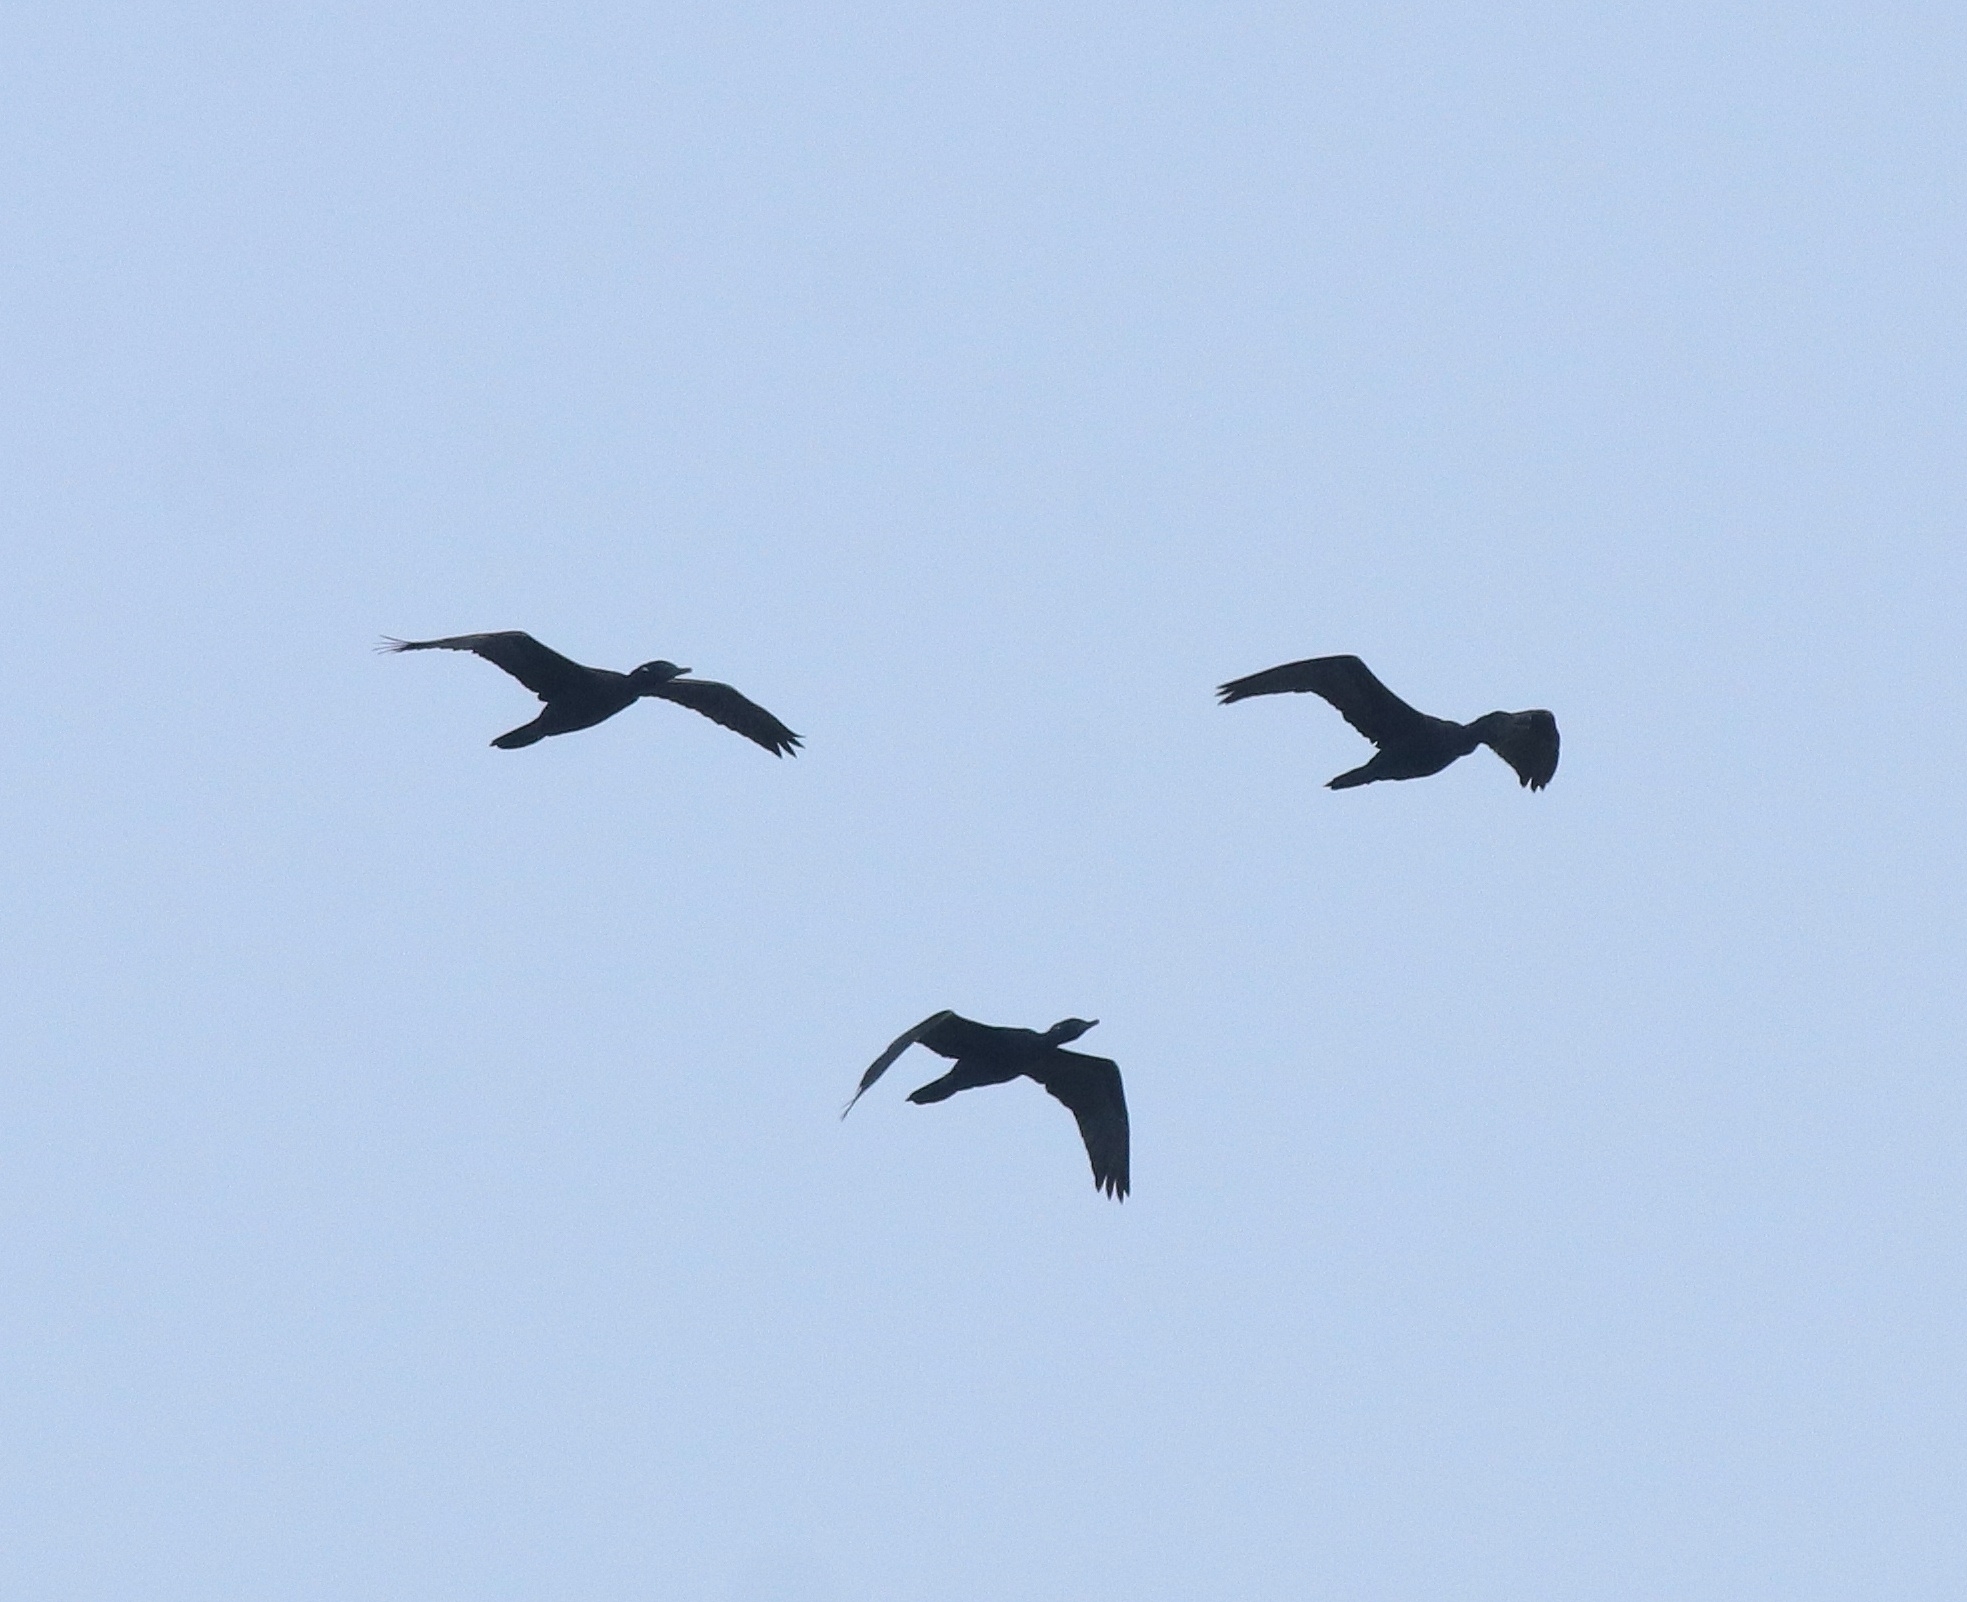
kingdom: Animalia
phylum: Chordata
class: Aves
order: Suliformes
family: Phalacrocoracidae
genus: Phalacrocorax
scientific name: Phalacrocorax fuscicollis
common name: Indian cormorant
